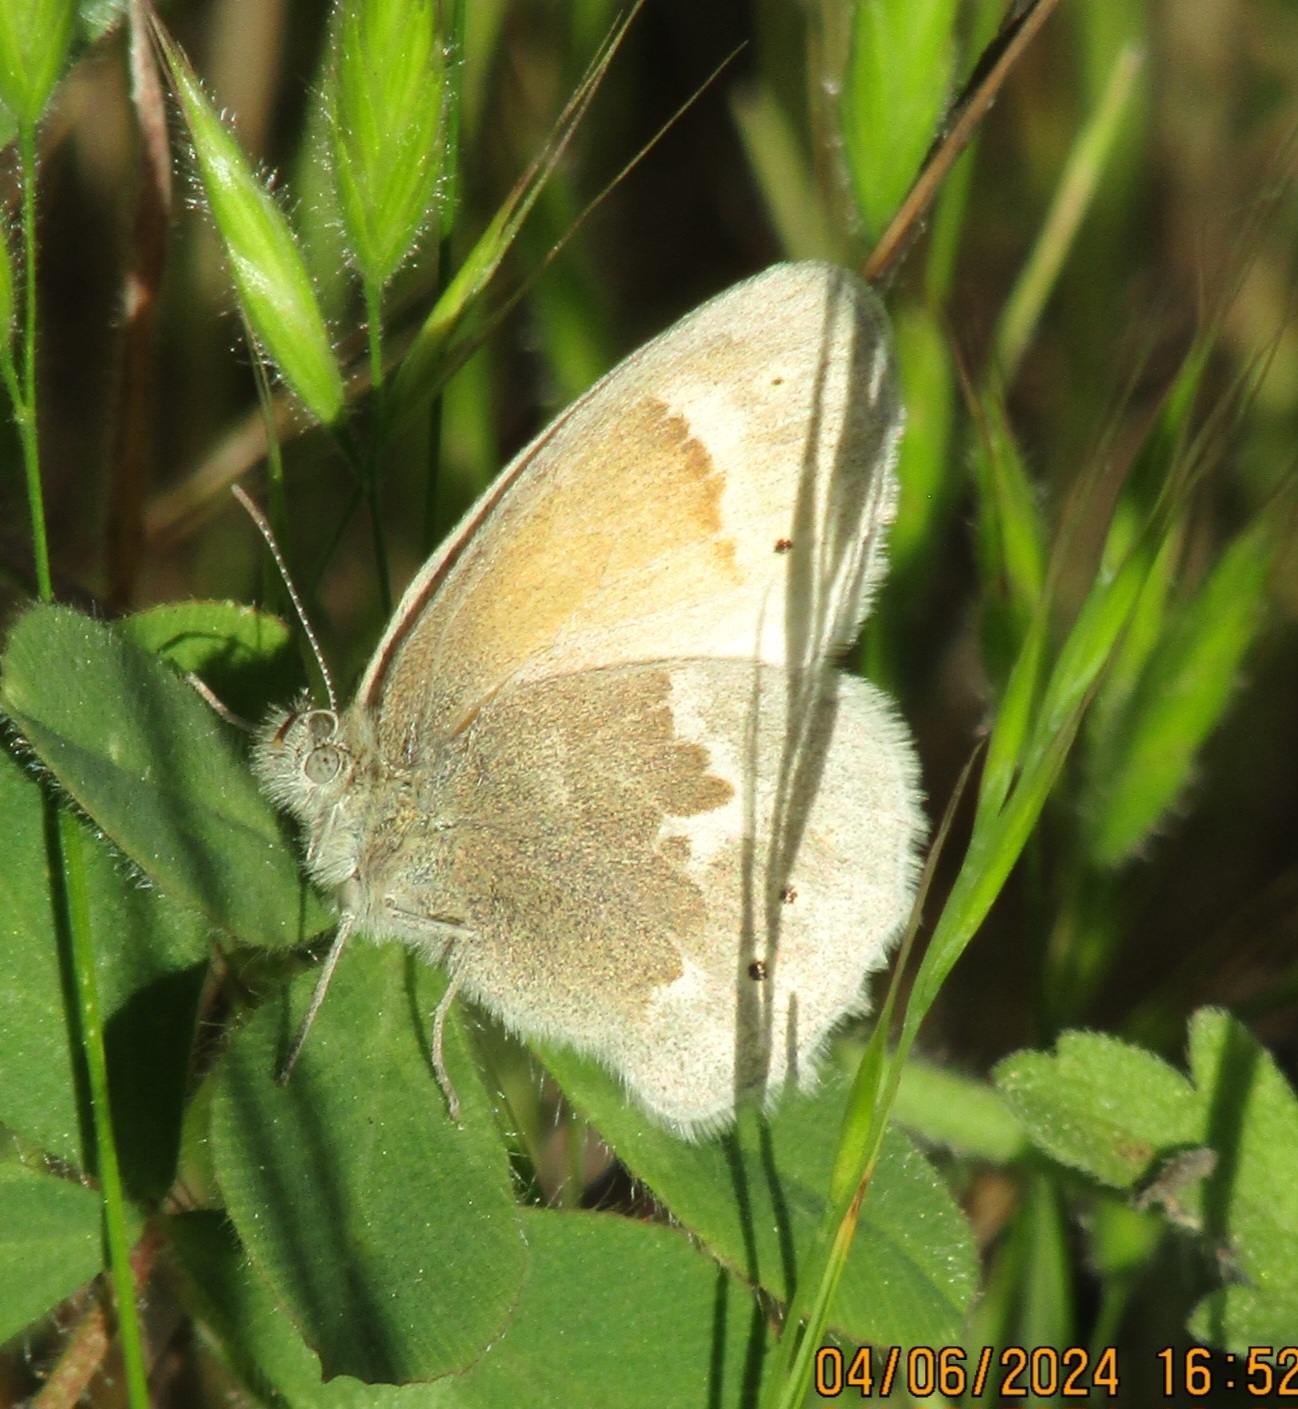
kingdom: Animalia
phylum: Arthropoda
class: Insecta
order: Lepidoptera
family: Nymphalidae
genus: Coenonympha
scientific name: Coenonympha california
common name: Common ringlet
